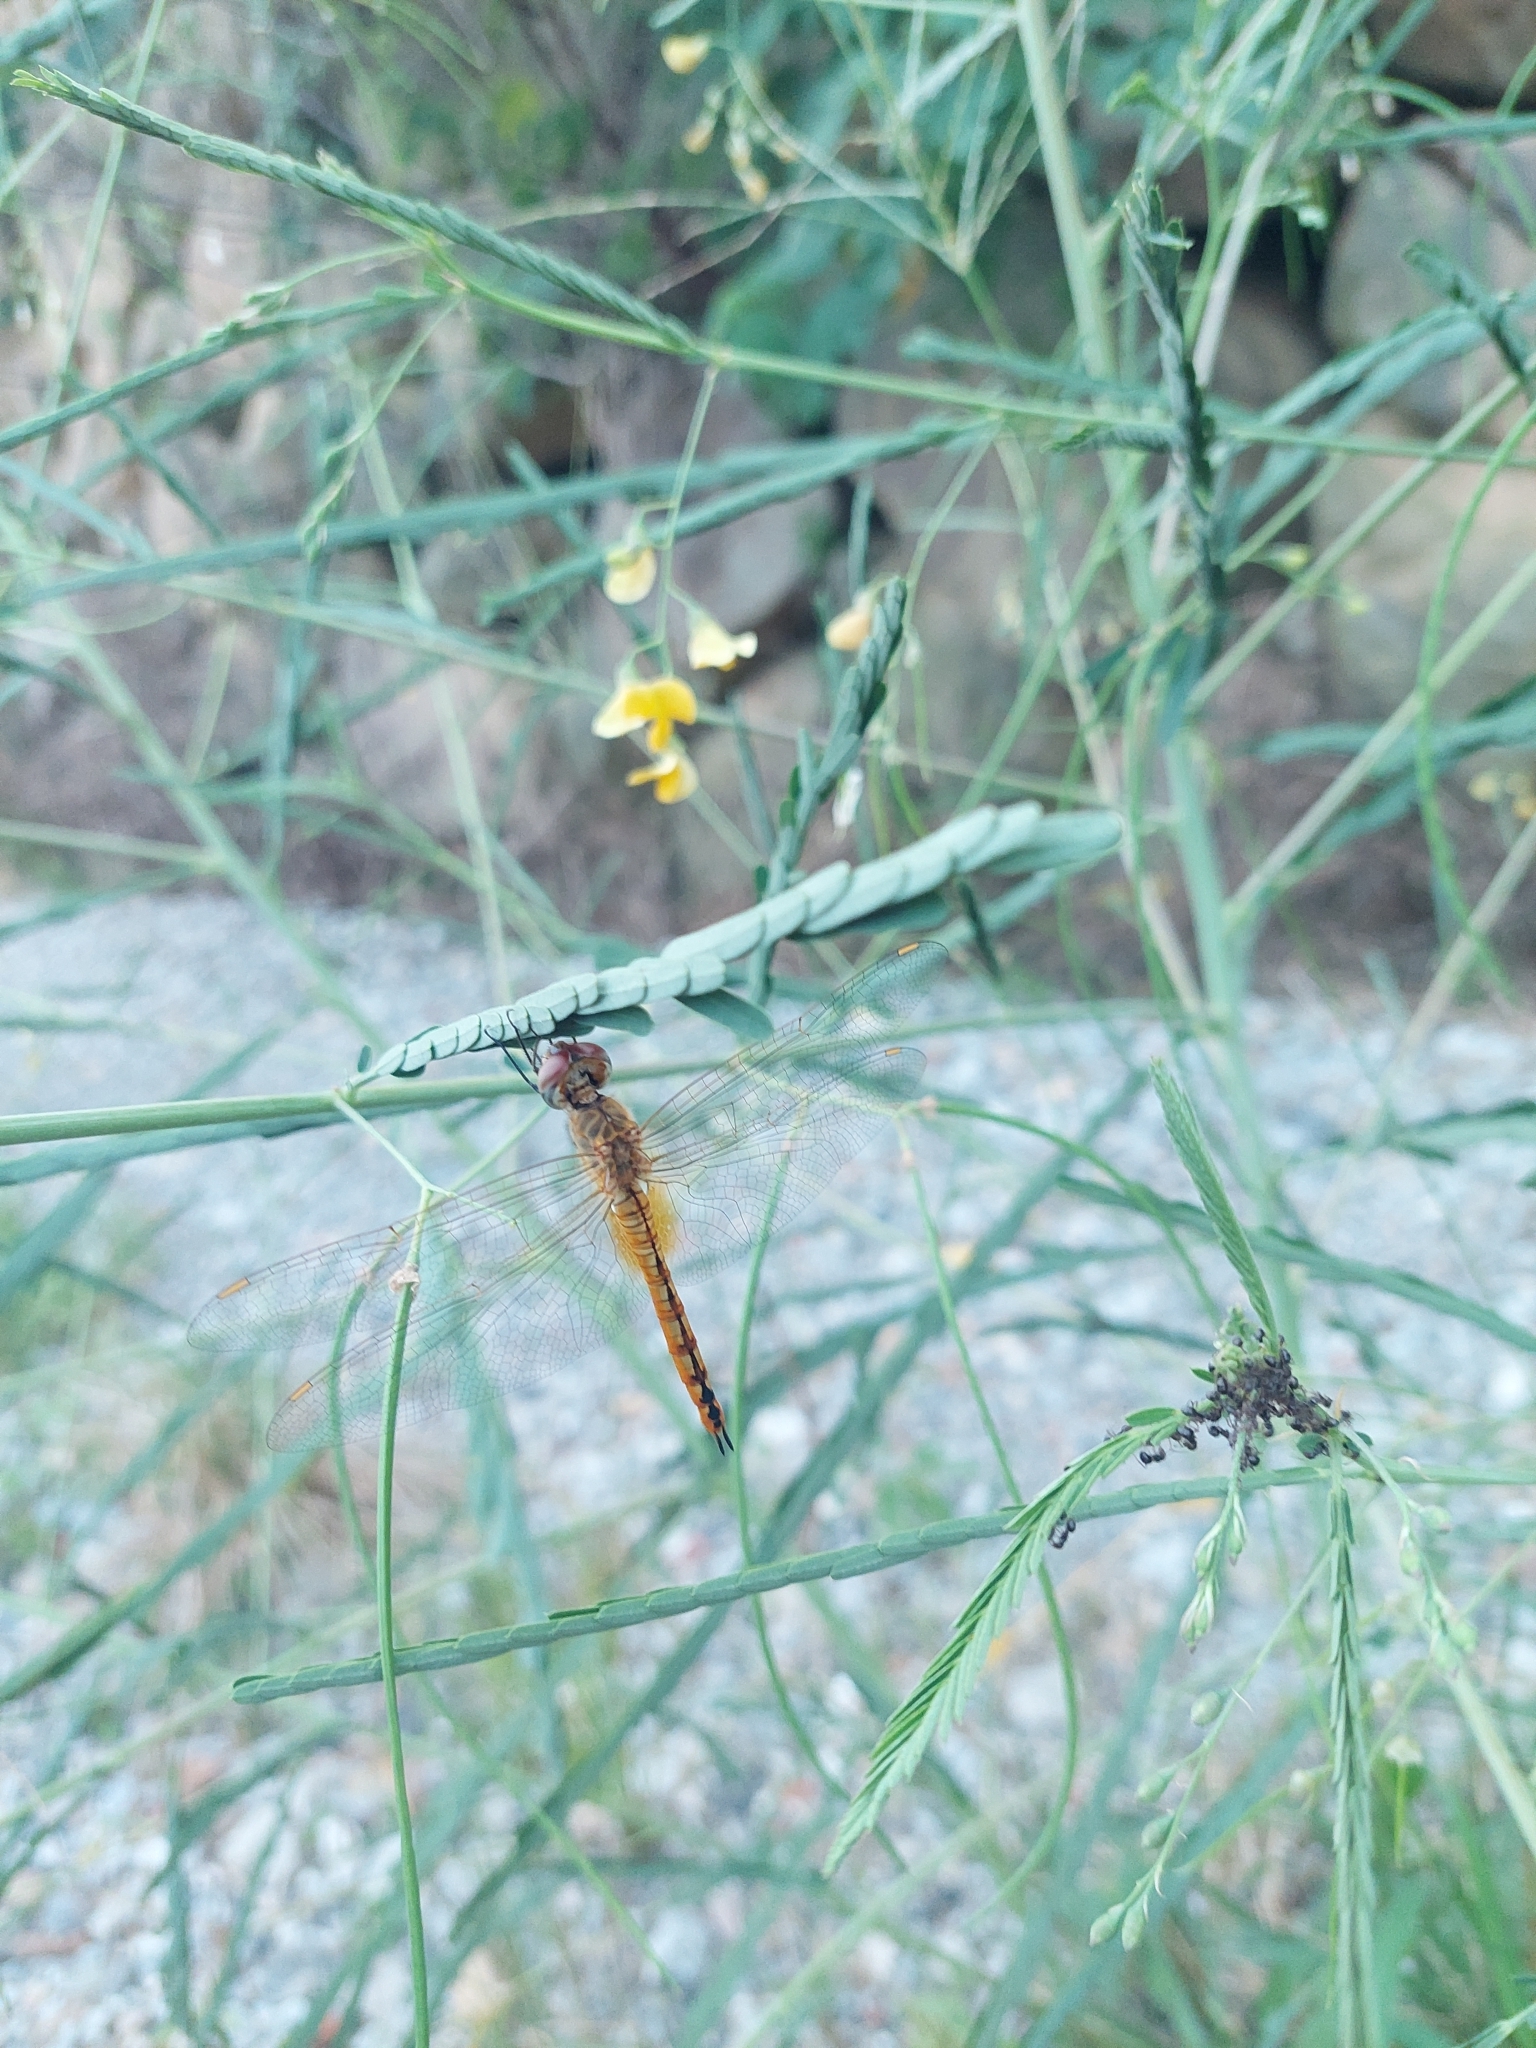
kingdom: Animalia
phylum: Arthropoda
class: Insecta
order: Odonata
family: Libellulidae
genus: Pantala
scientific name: Pantala flavescens
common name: Wandering glider
